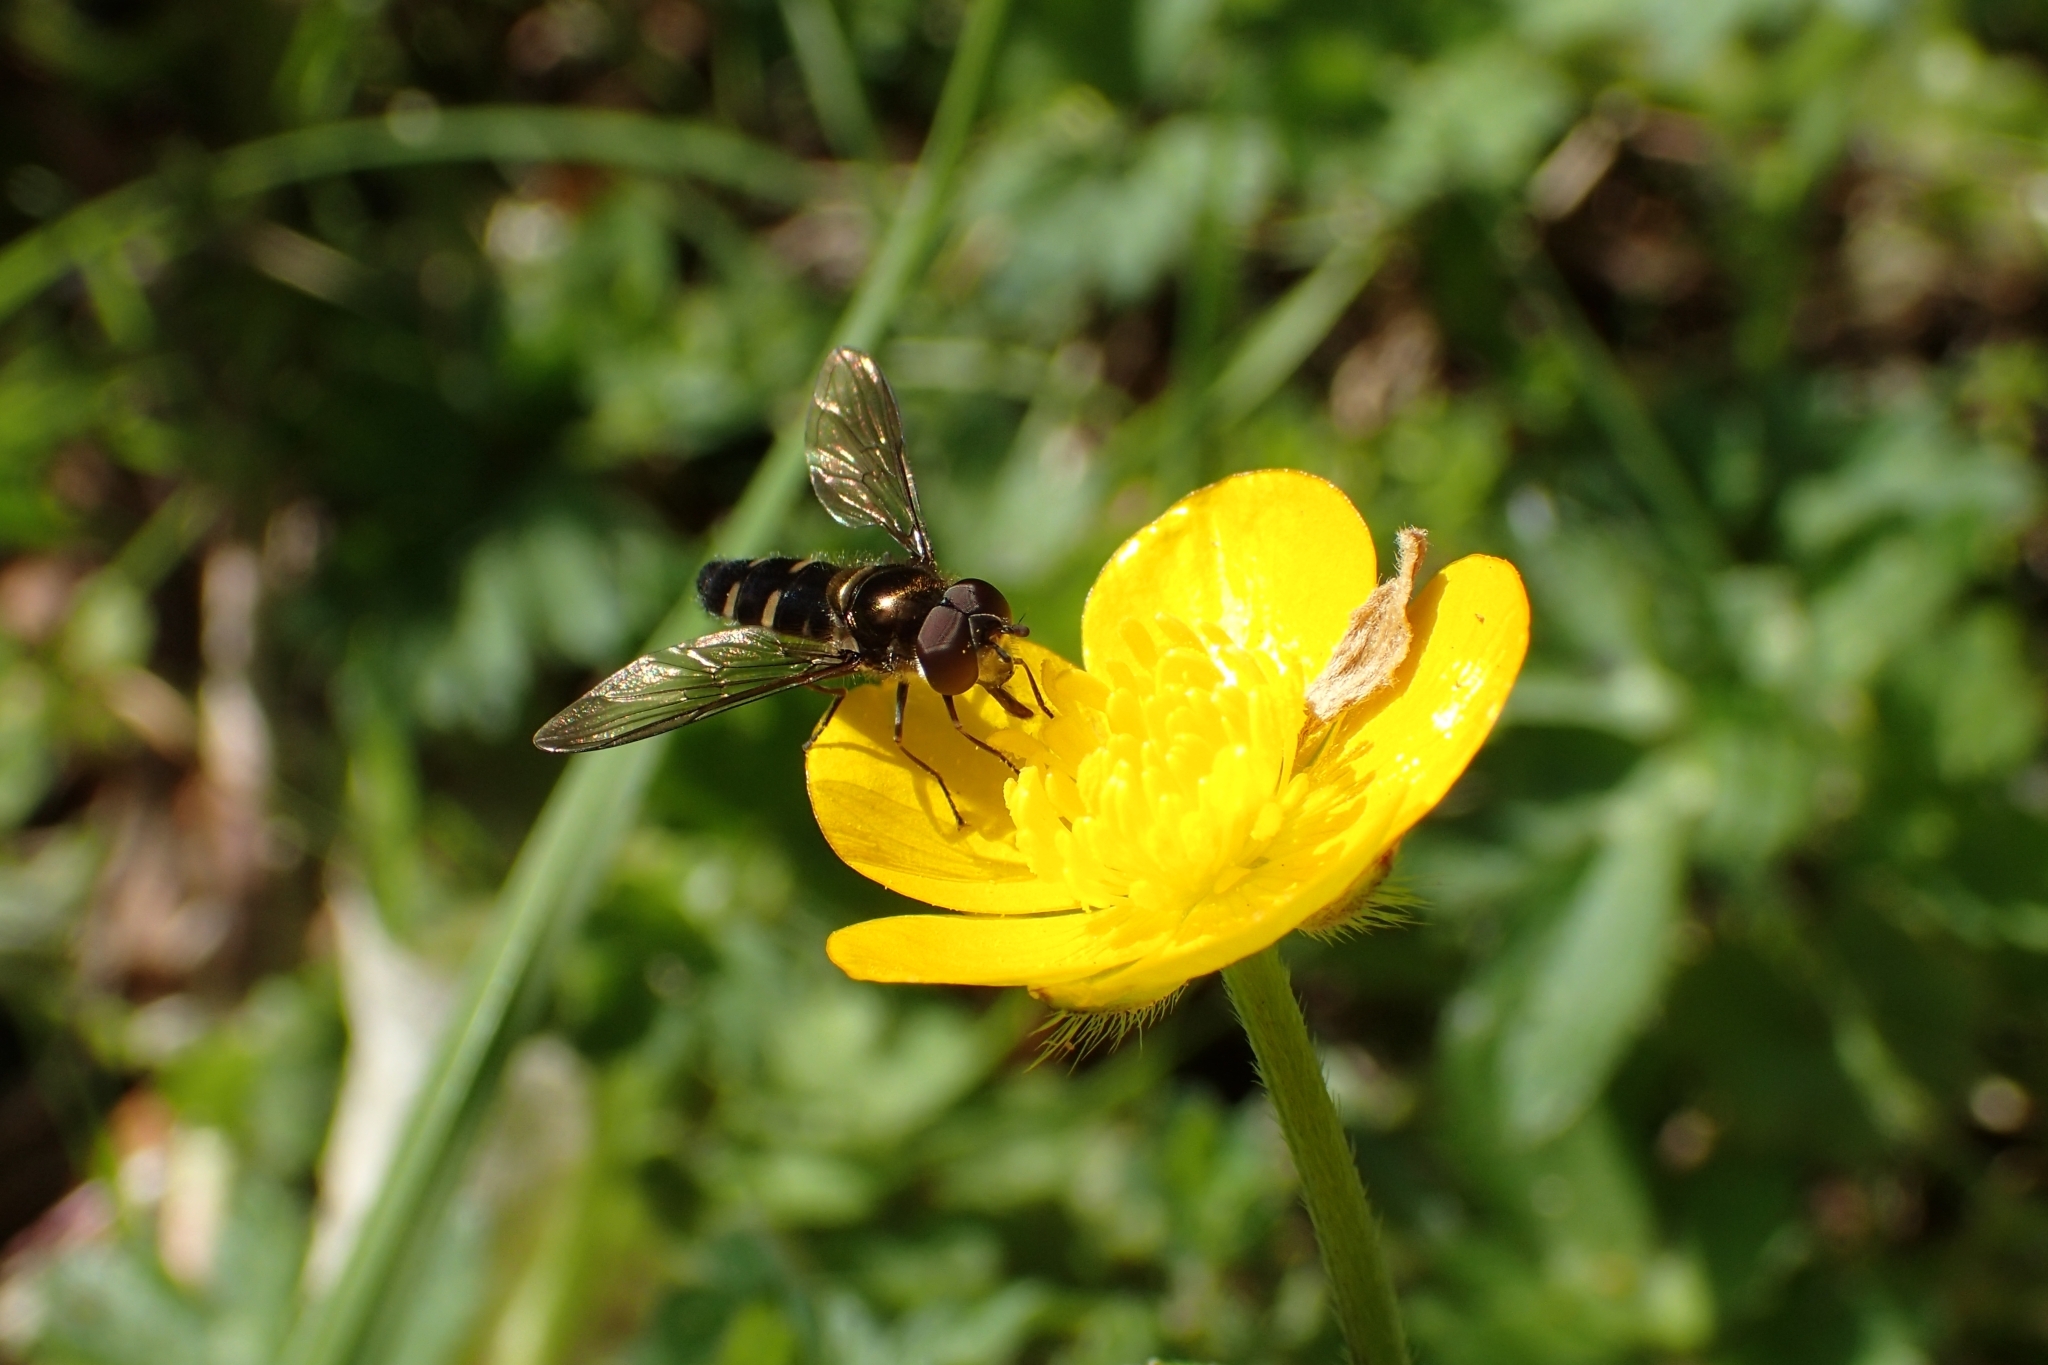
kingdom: Animalia
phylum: Arthropoda
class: Insecta
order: Diptera
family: Syrphidae
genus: Melangyna
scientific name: Melangyna novaezelandiae
